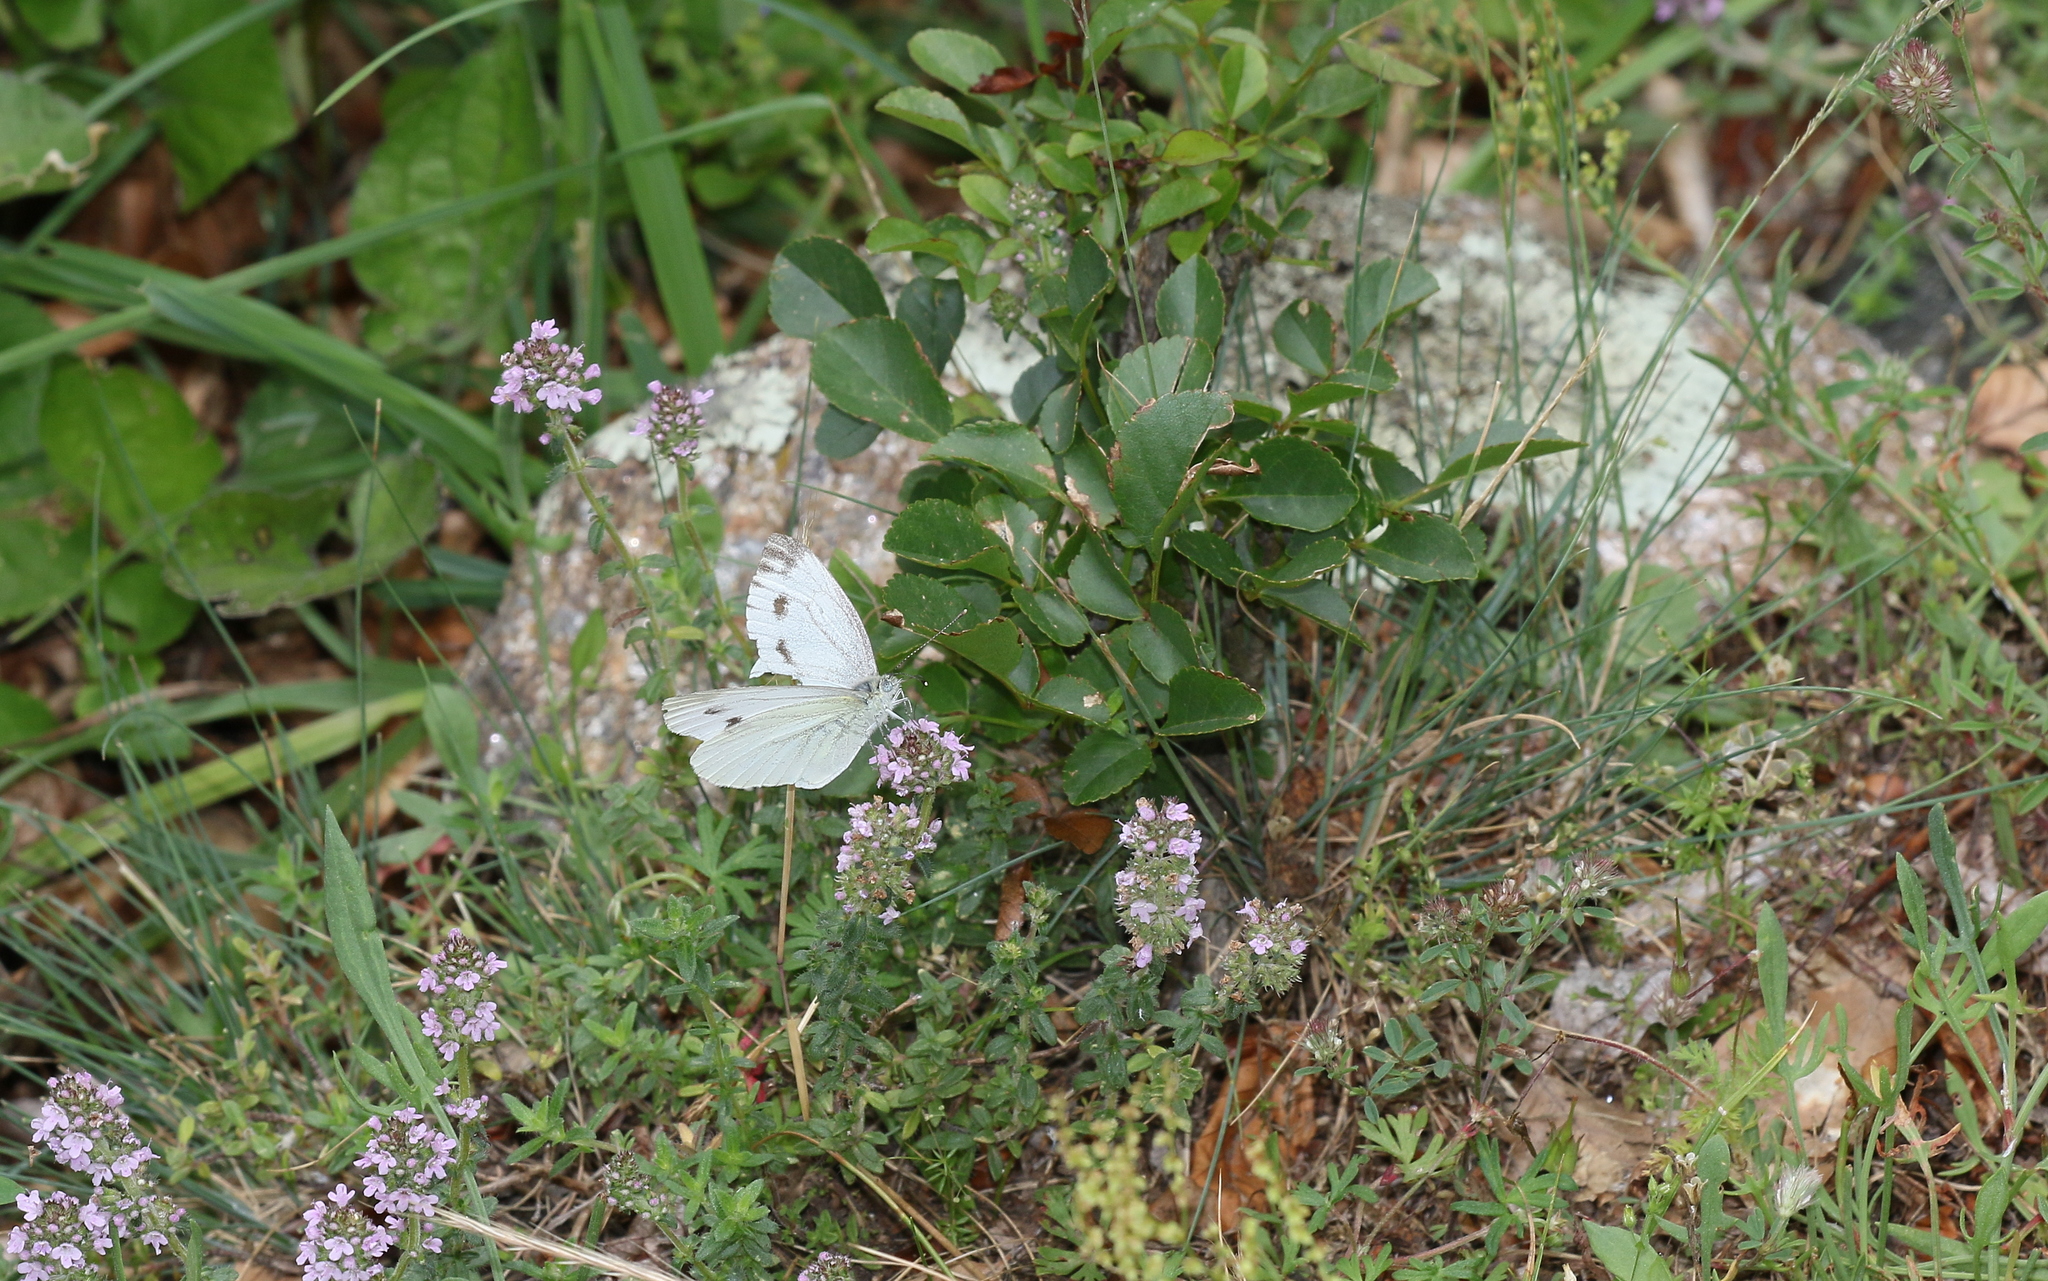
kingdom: Animalia
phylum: Arthropoda
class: Insecta
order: Lepidoptera
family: Pieridae
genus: Pieris
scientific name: Pieris napi
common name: Green-veined white
